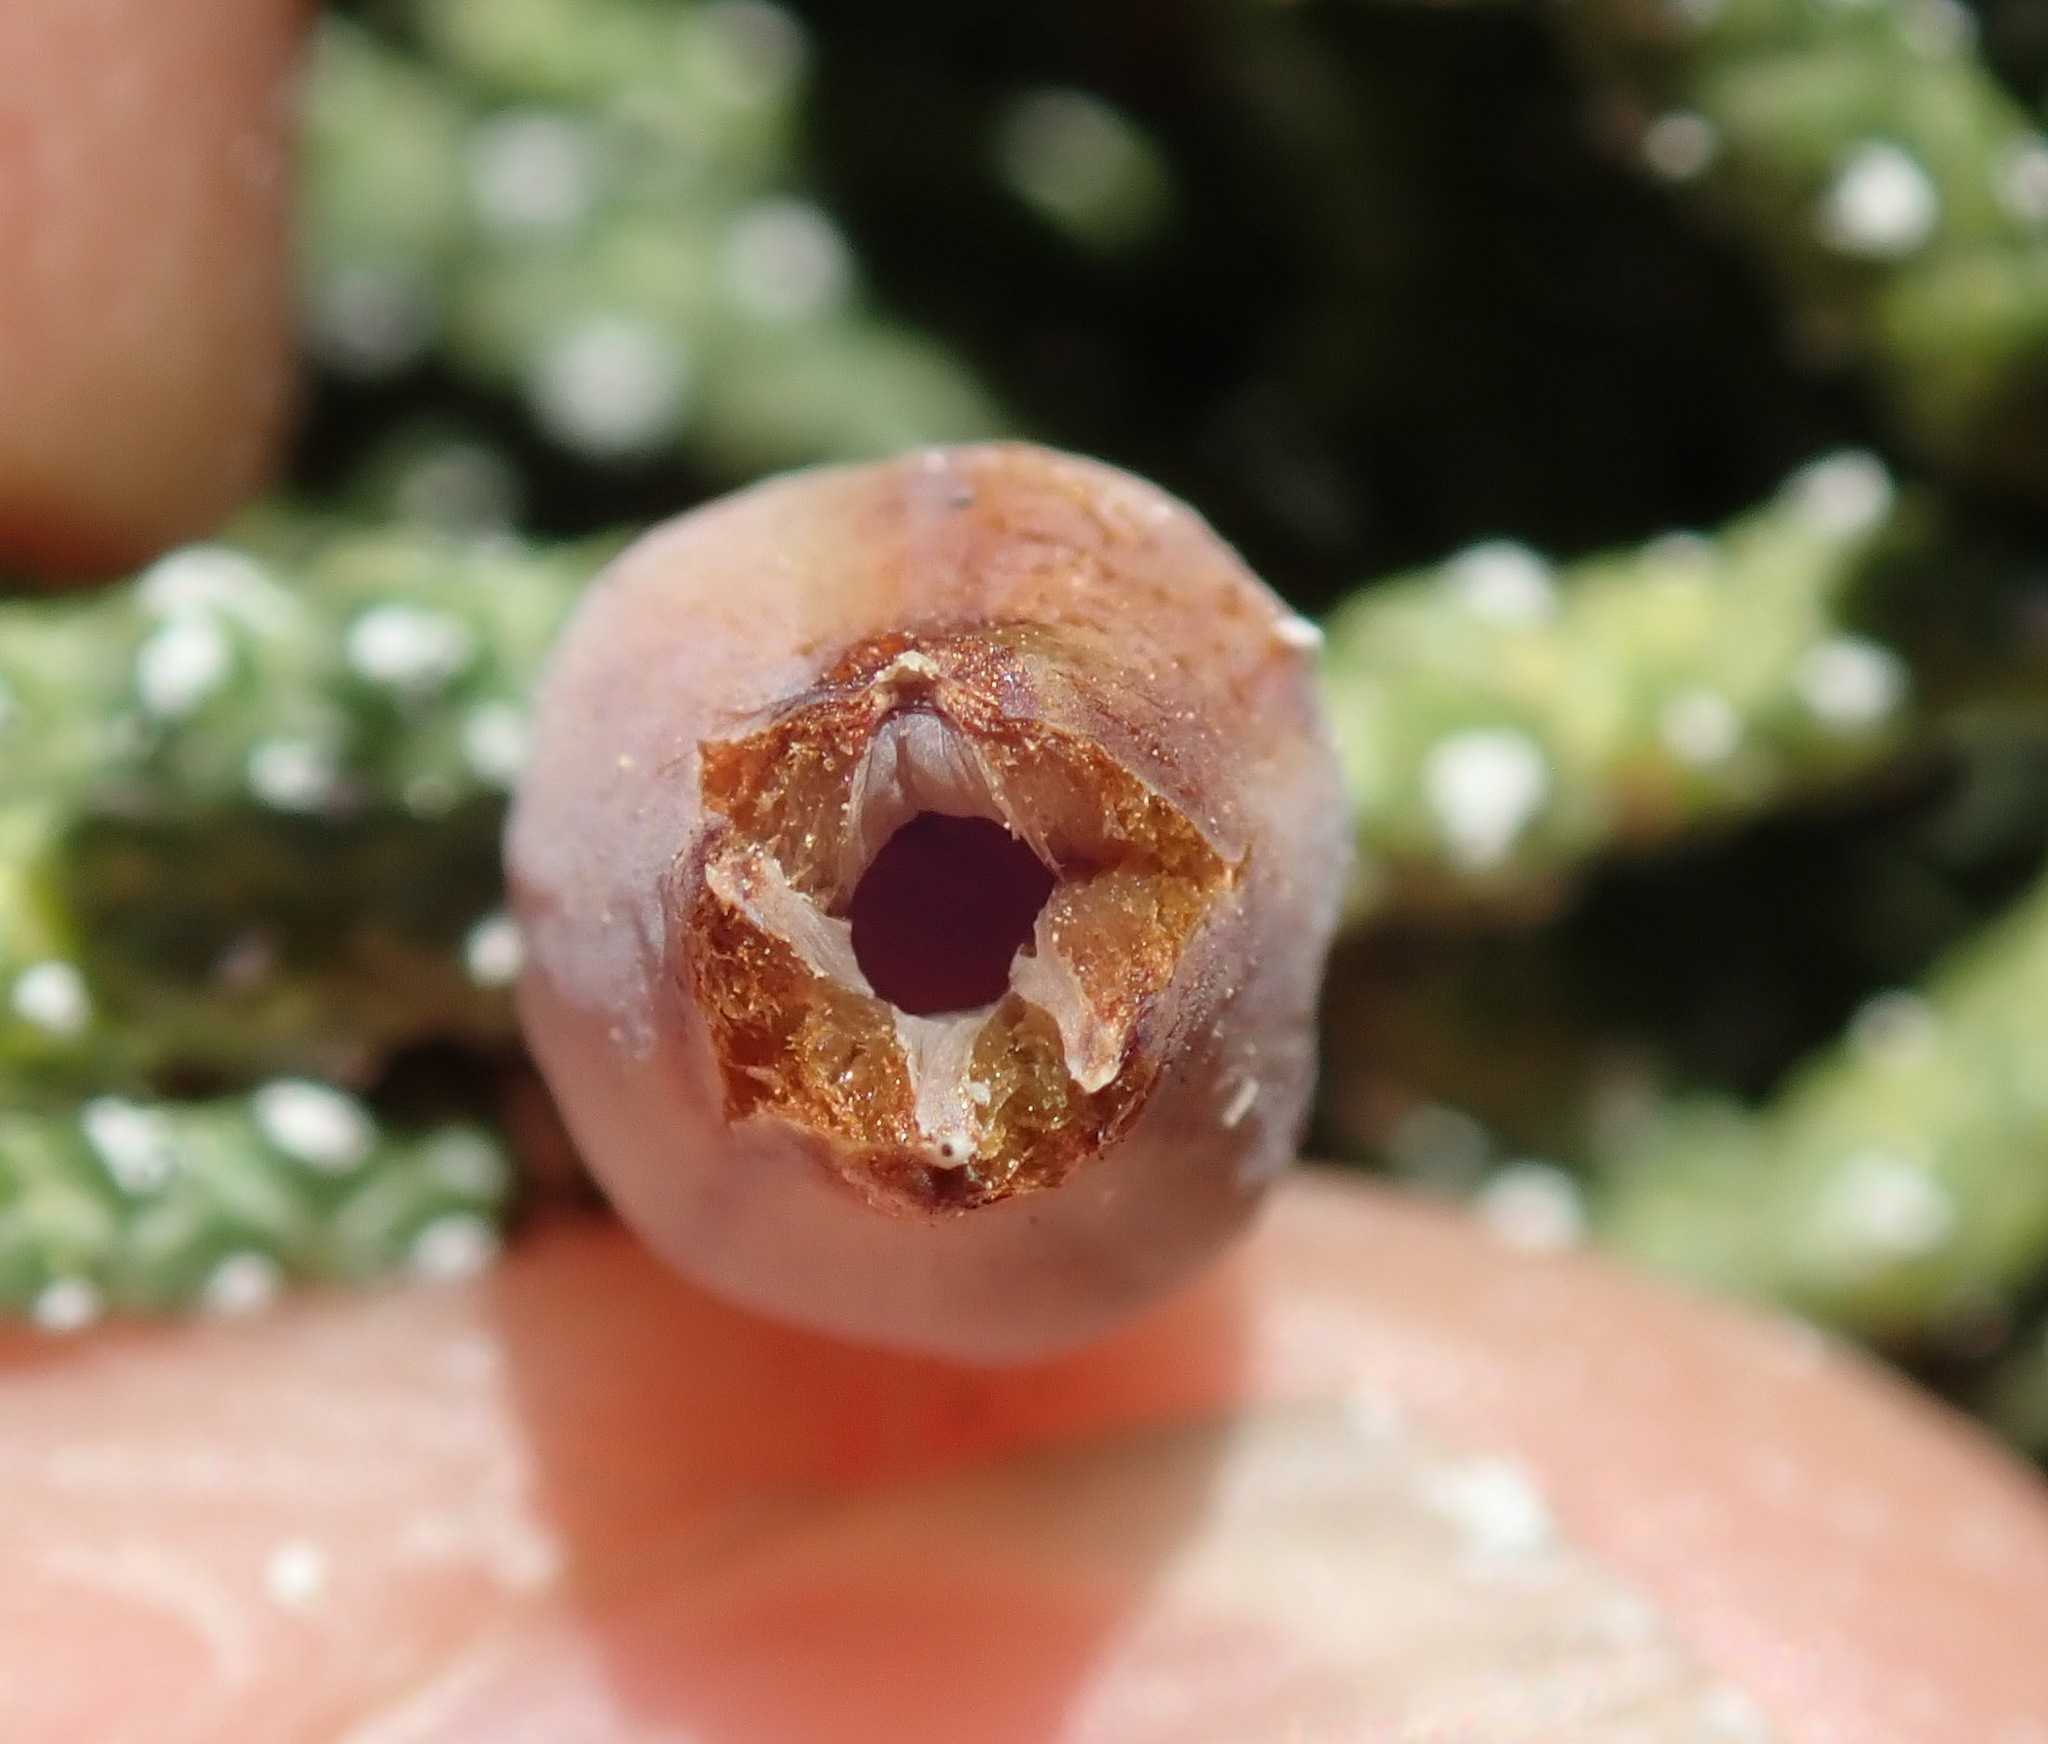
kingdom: Animalia
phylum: Arthropoda
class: Insecta
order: Diptera
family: Cecidomyiidae
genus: Walshomyia
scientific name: Walshomyia juniperina
